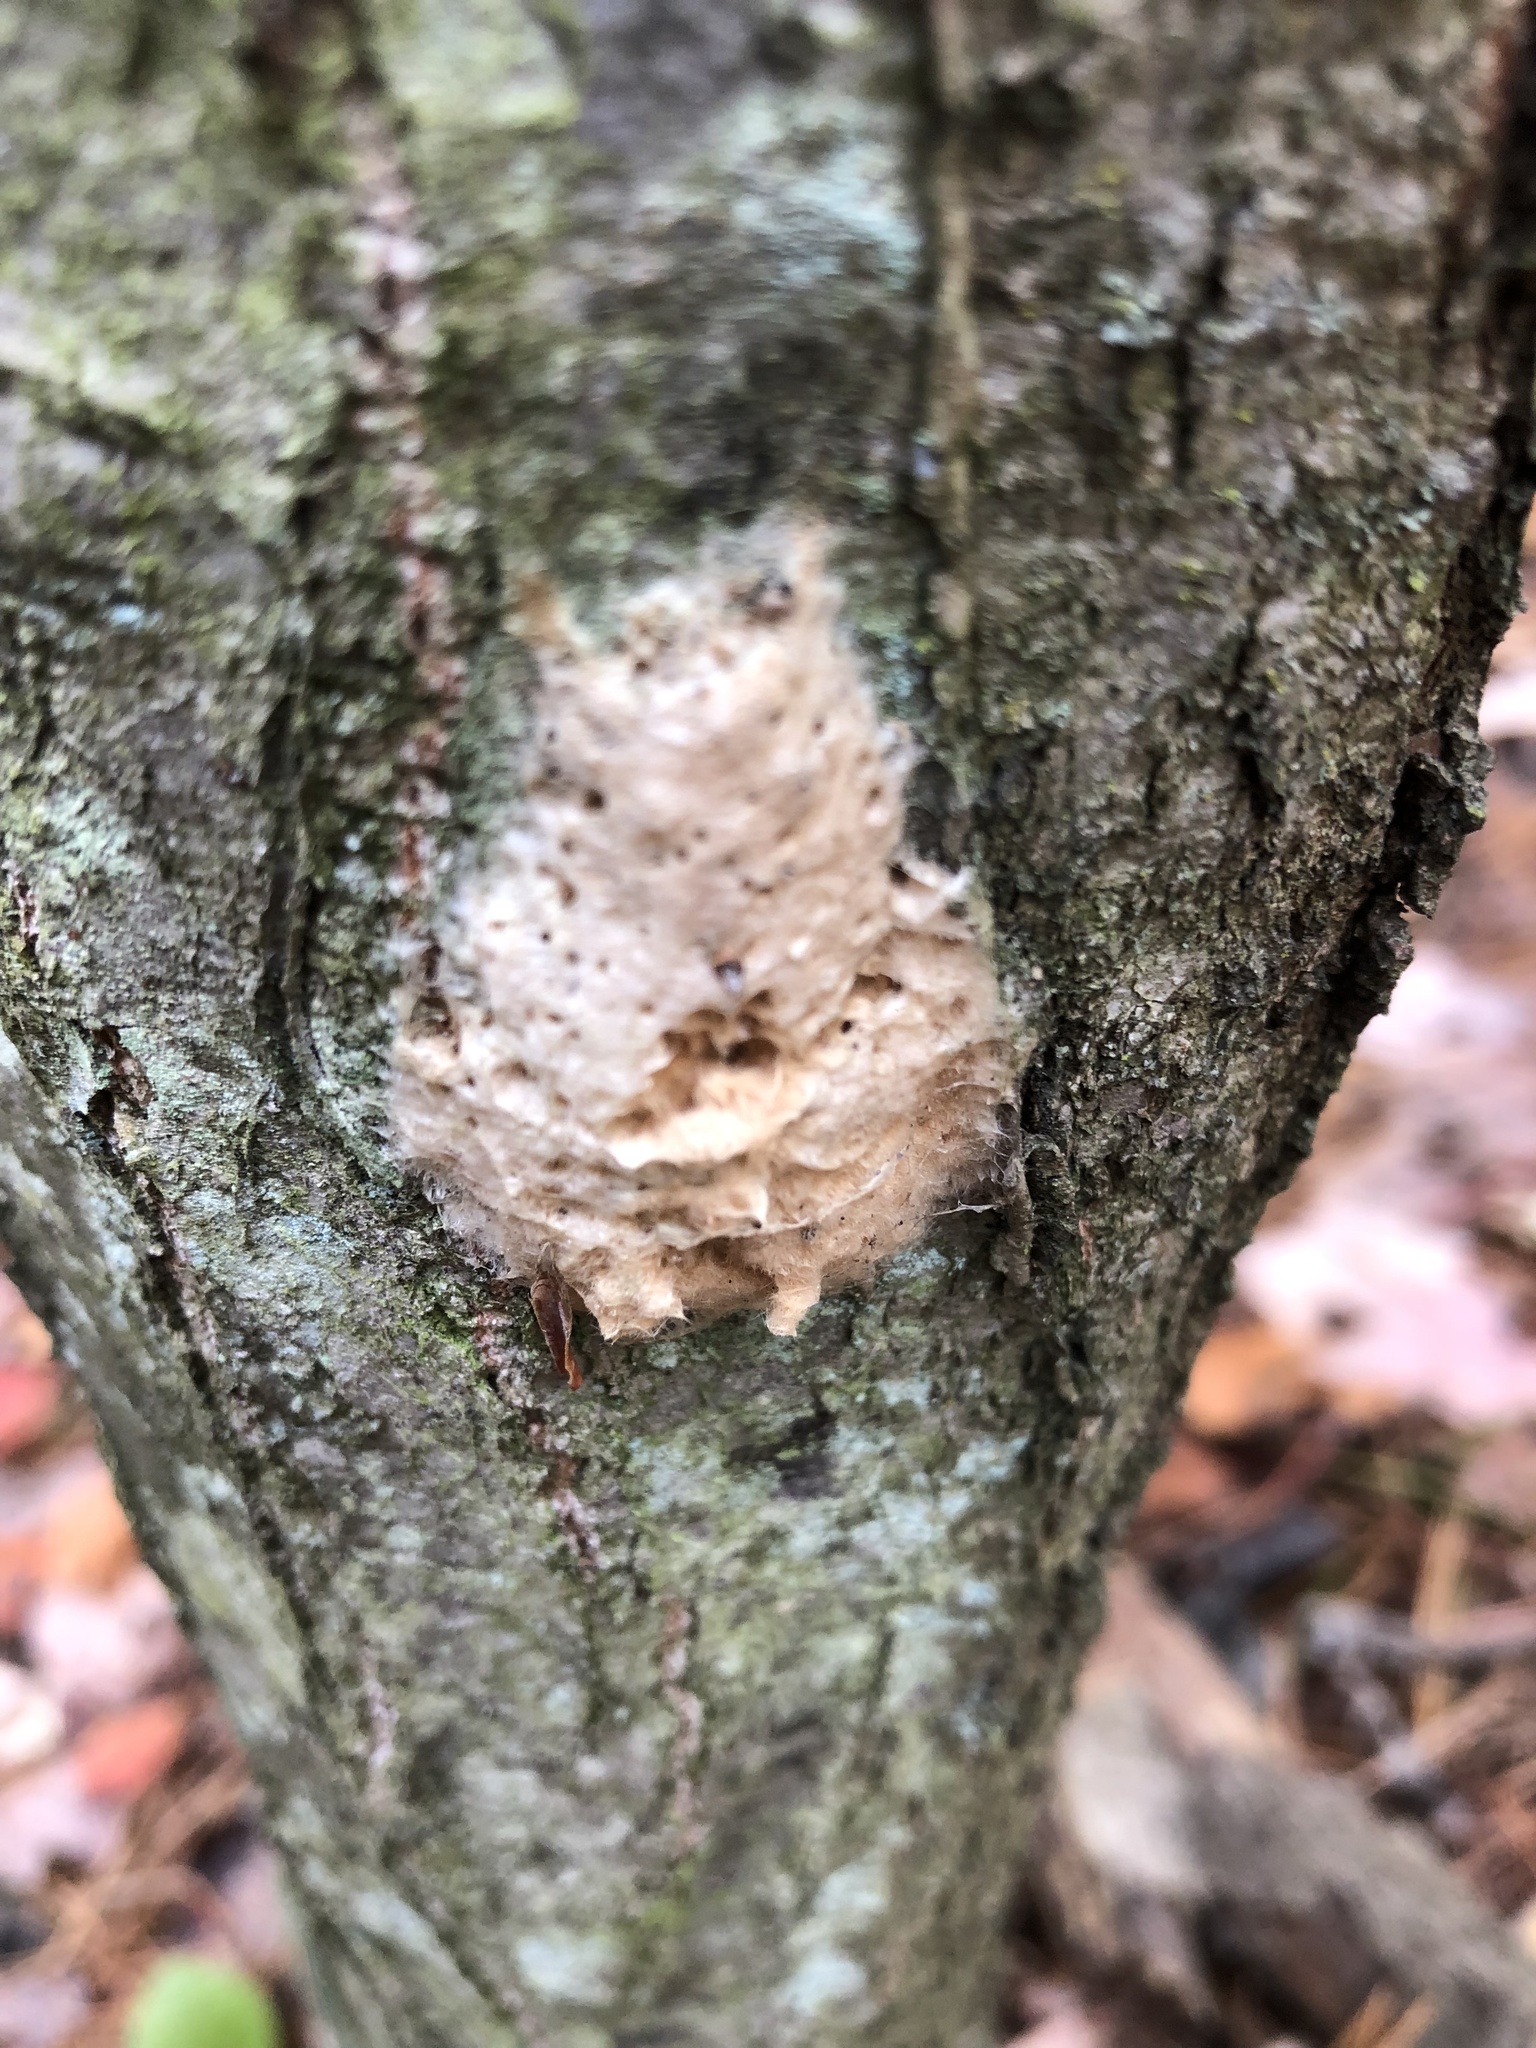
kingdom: Animalia
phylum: Arthropoda
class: Insecta
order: Lepidoptera
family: Erebidae
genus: Lymantria
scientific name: Lymantria dispar
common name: Gypsy moth
